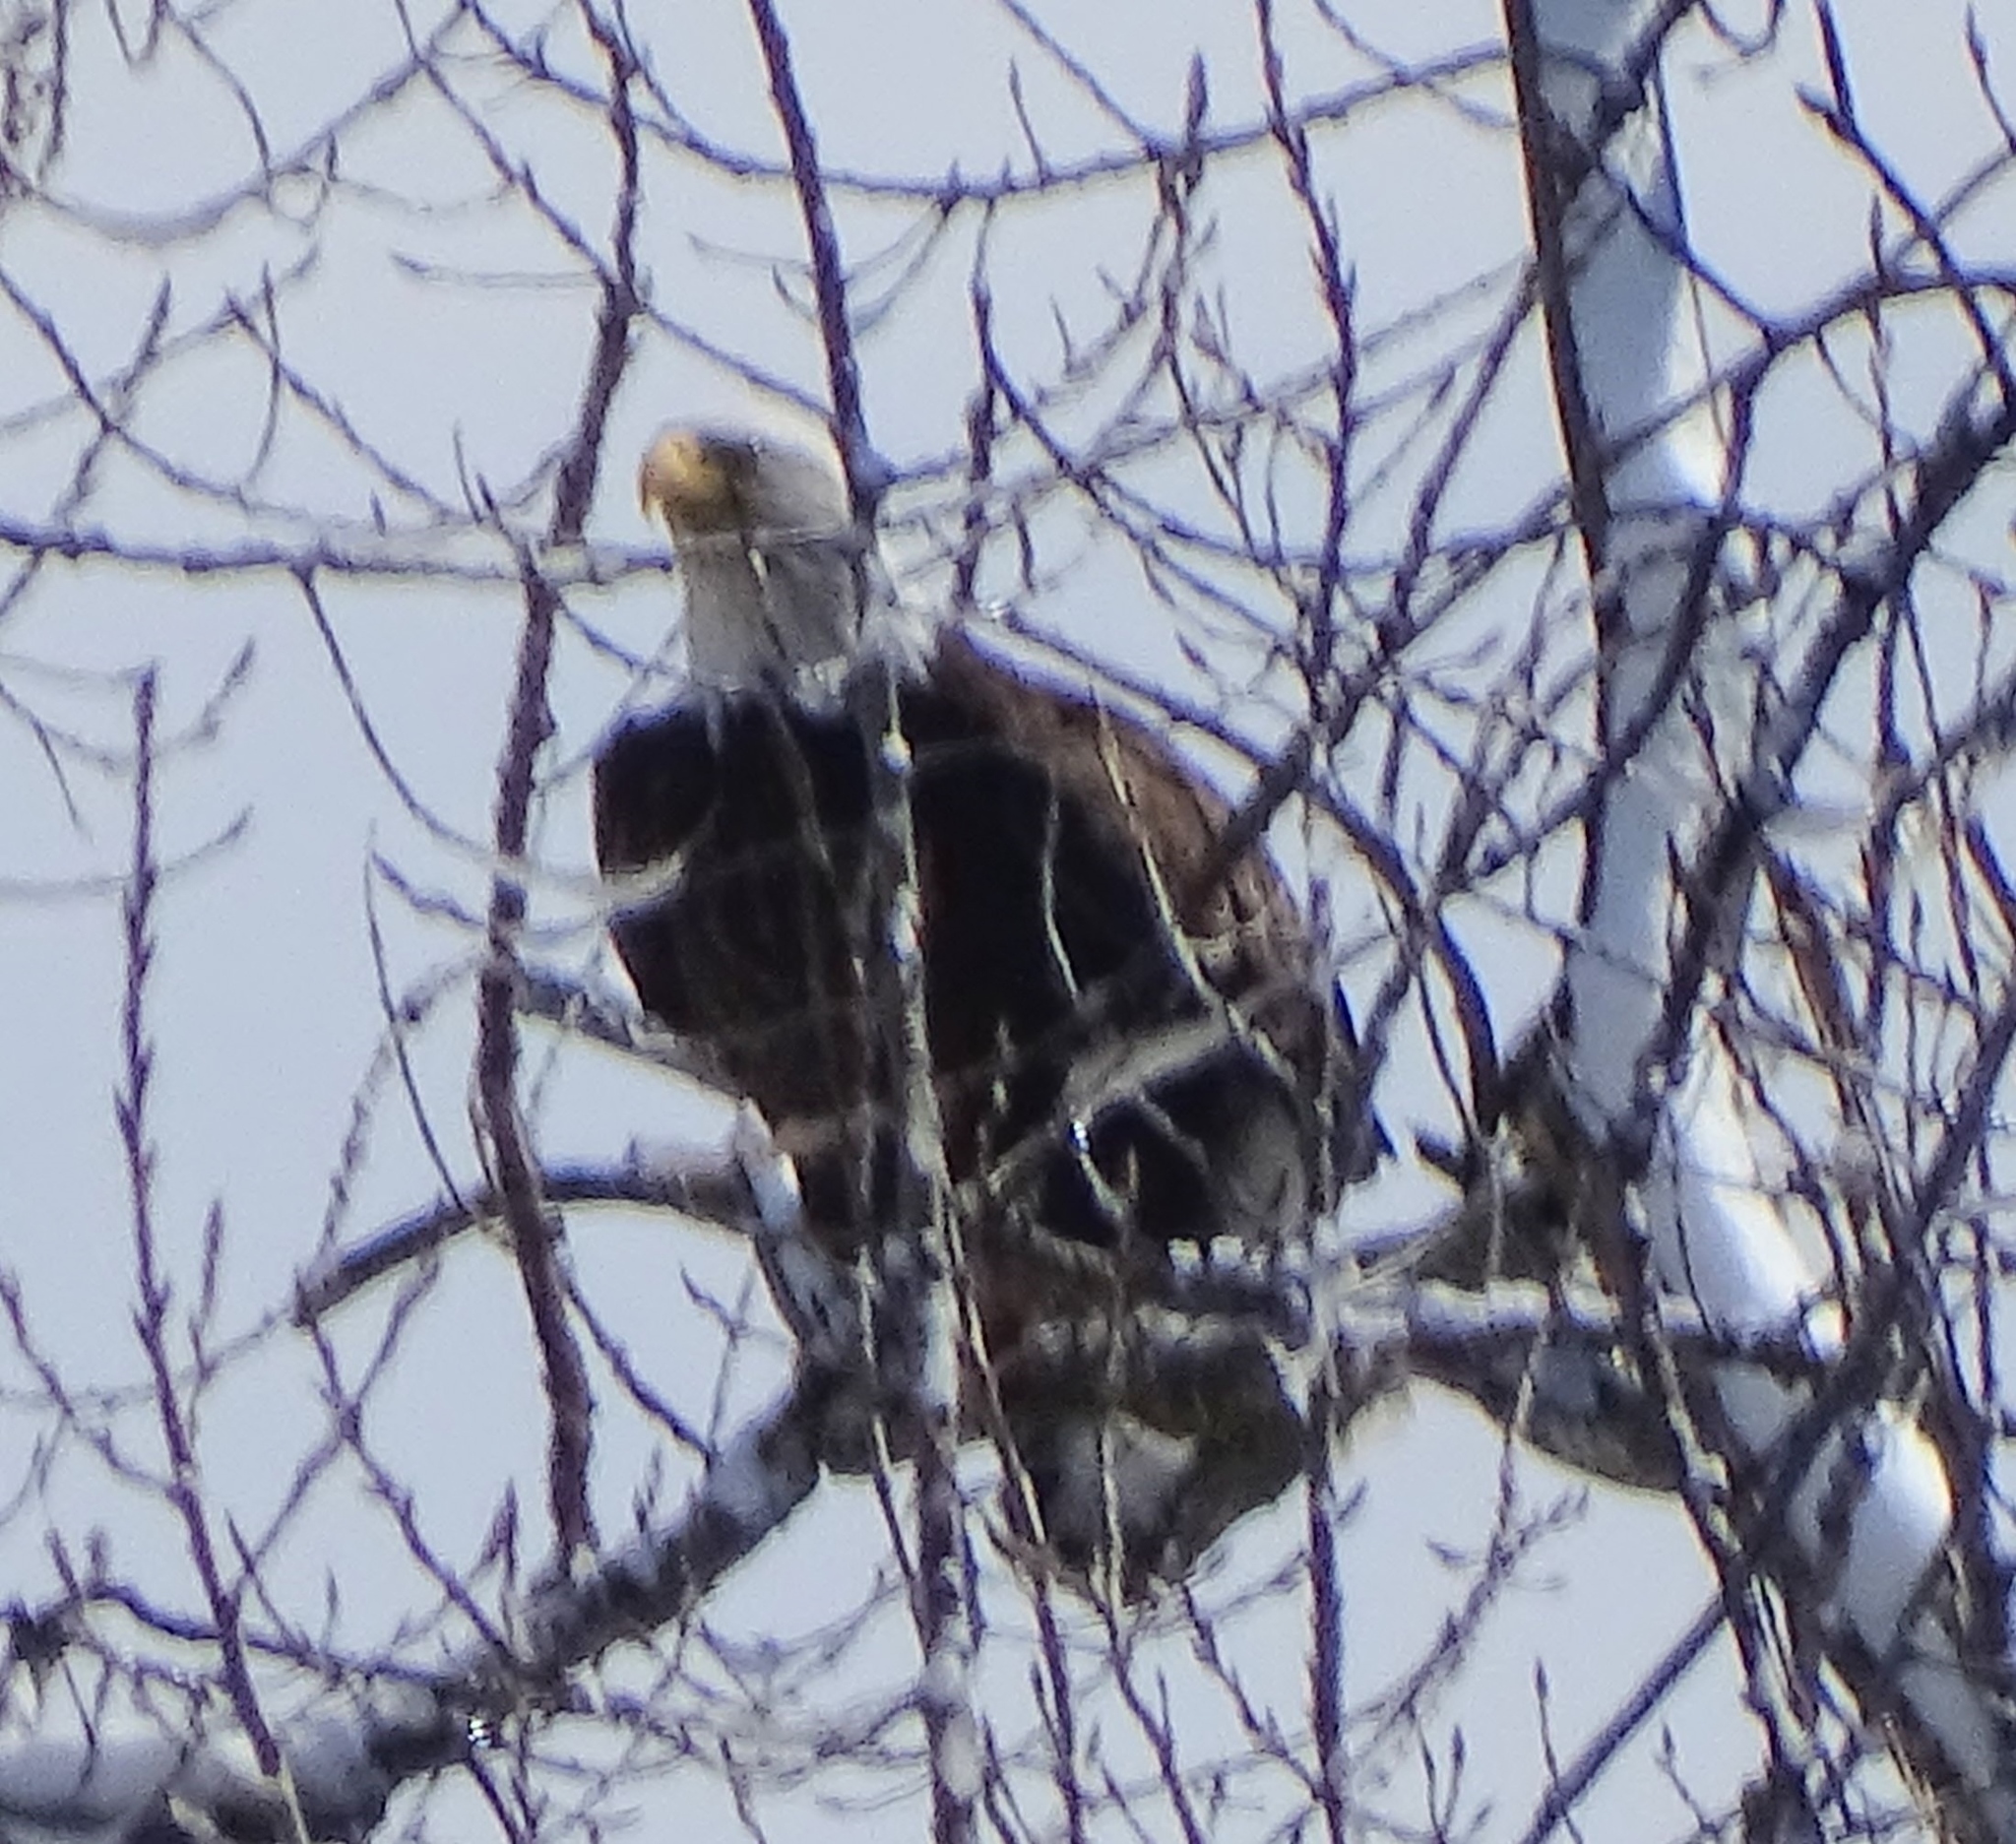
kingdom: Animalia
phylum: Chordata
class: Aves
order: Accipitriformes
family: Accipitridae
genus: Haliaeetus
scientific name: Haliaeetus leucocephalus
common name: Bald eagle
